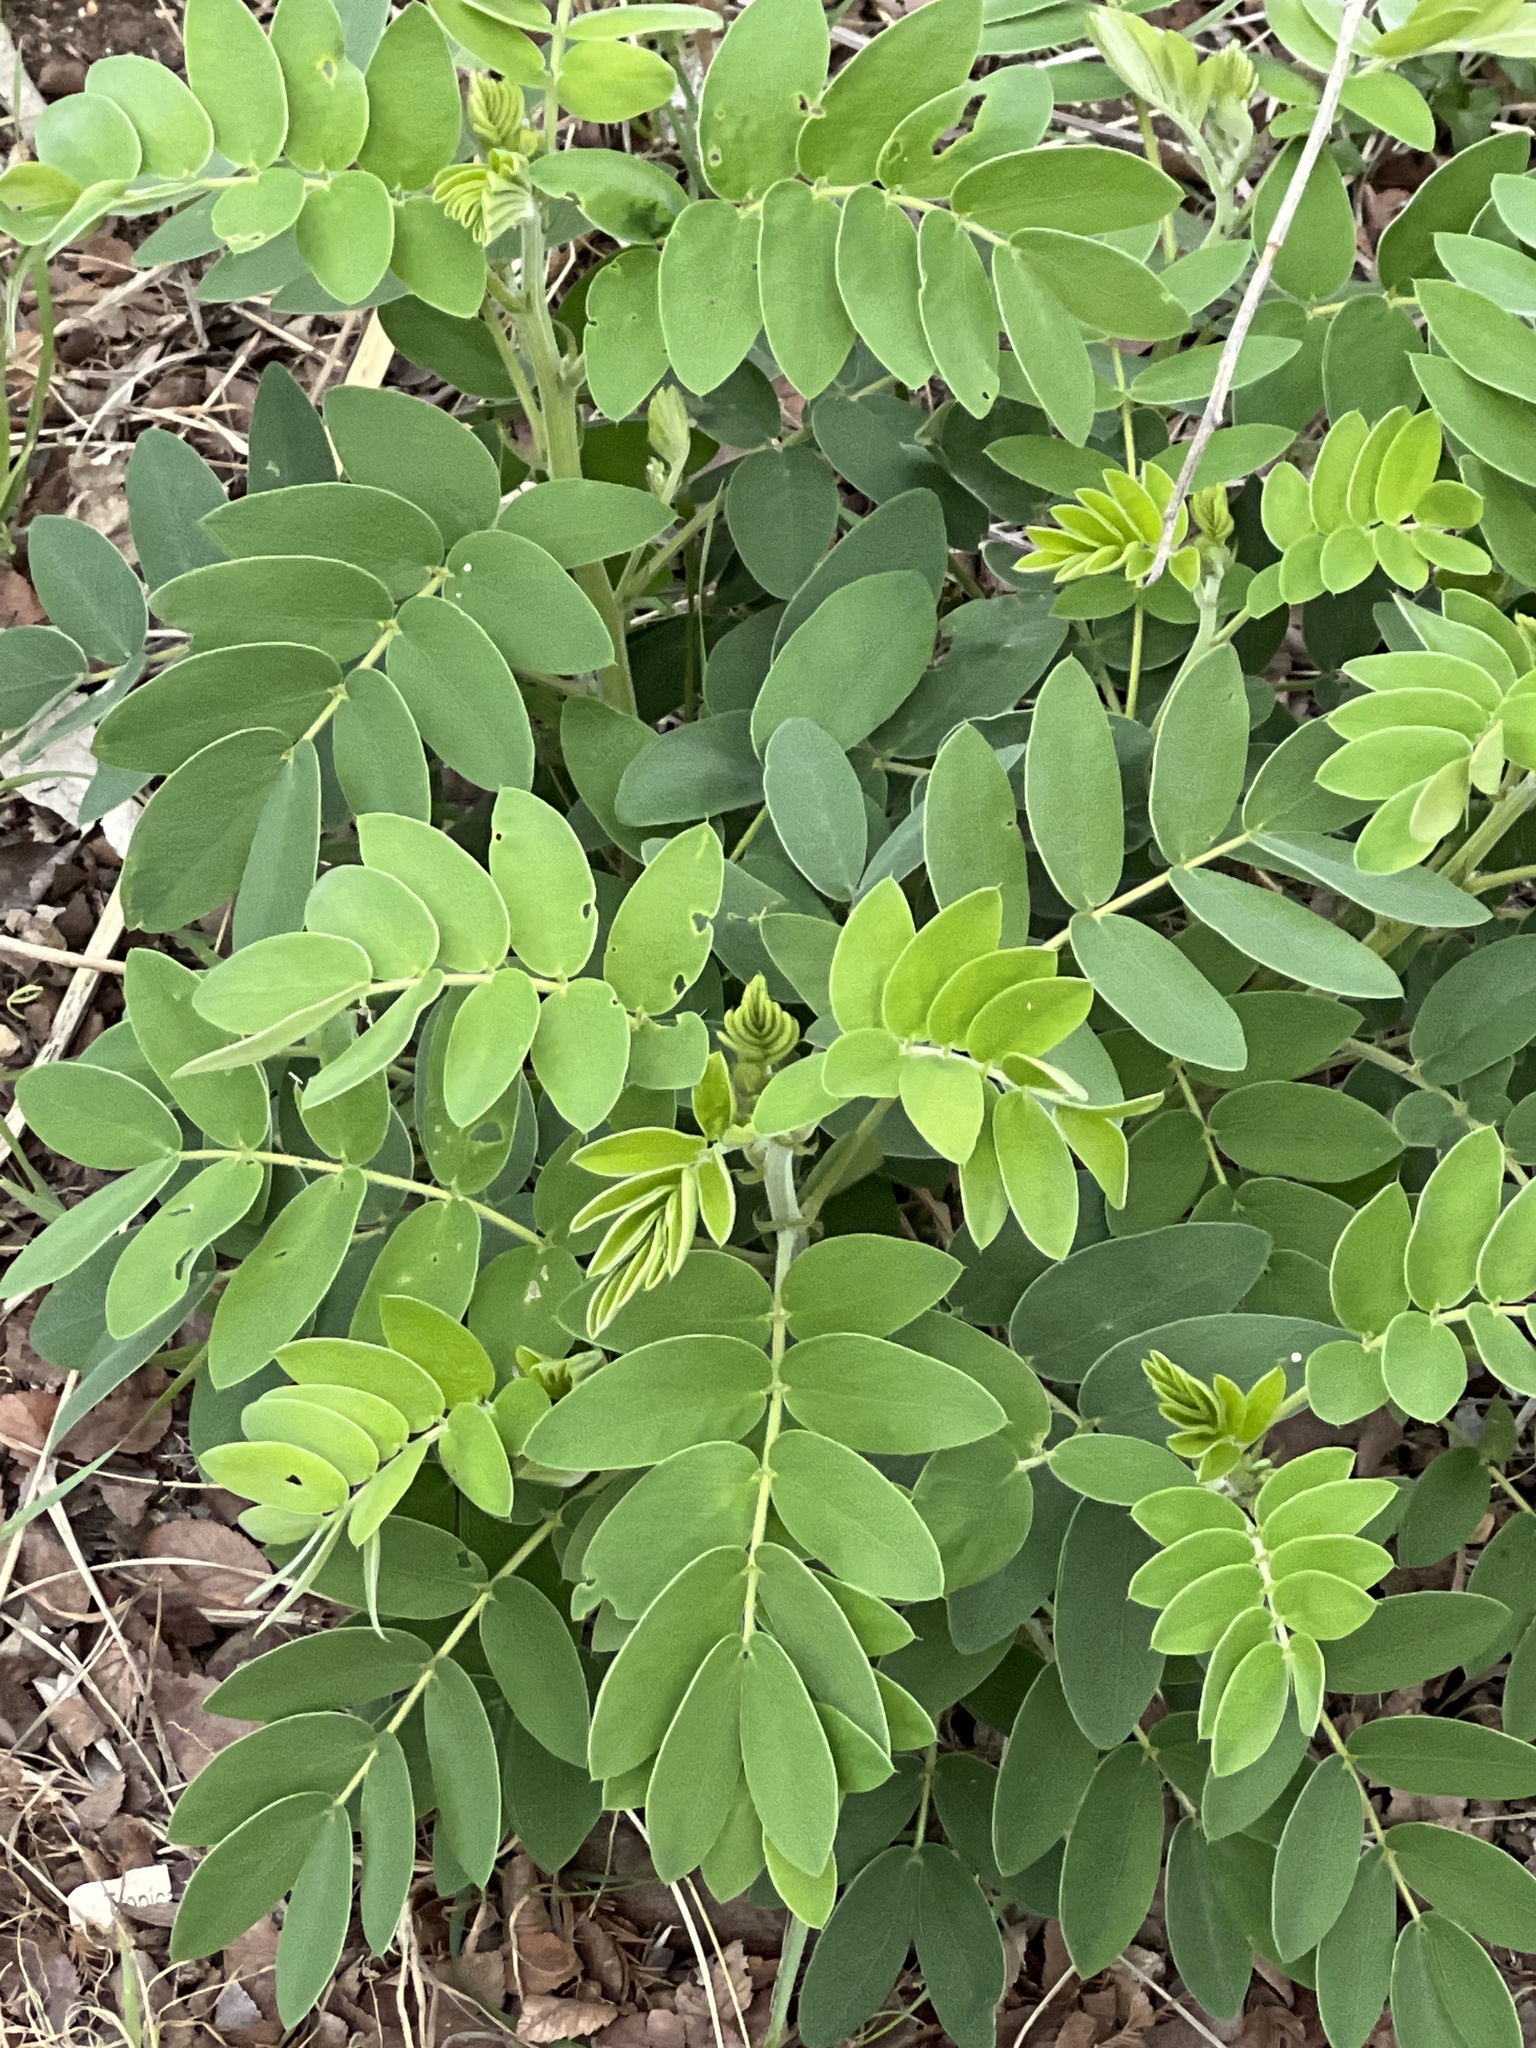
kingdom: Plantae
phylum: Tracheophyta
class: Magnoliopsida
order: Fabales
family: Fabaceae
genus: Senna
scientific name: Senna lindheimeriana
